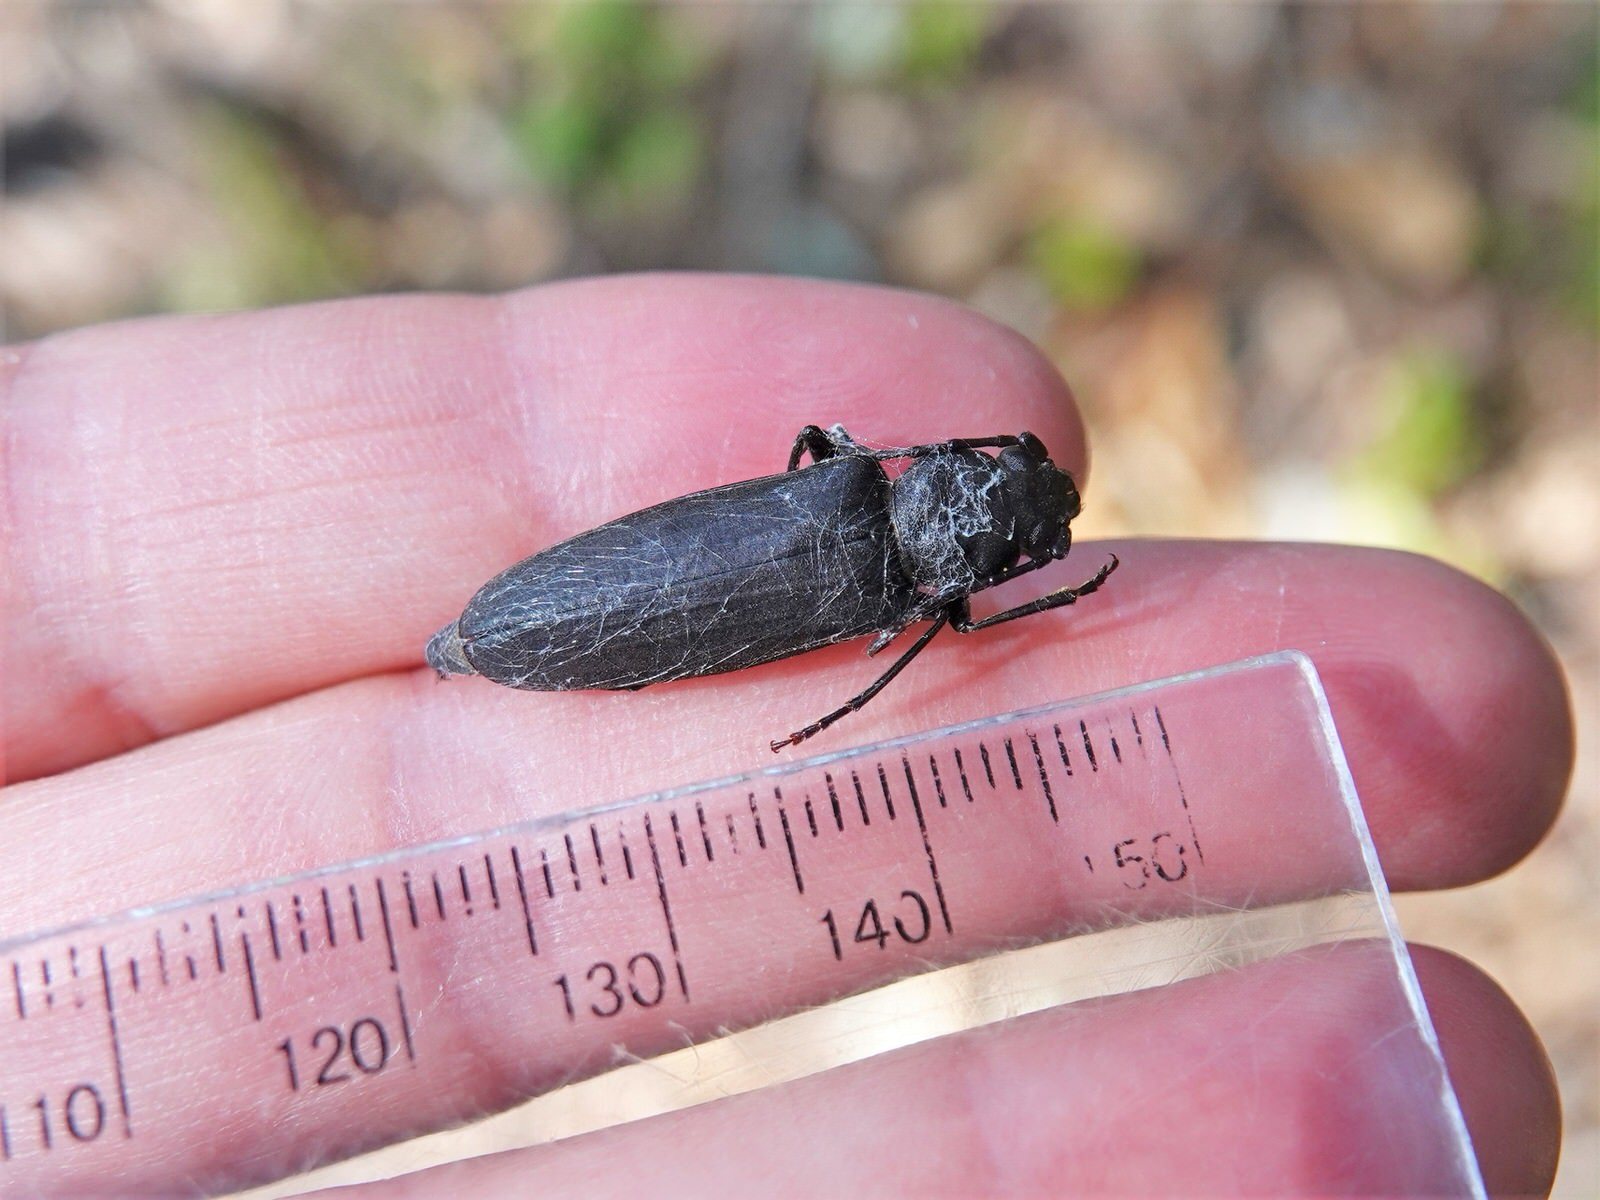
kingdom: Animalia
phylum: Arthropoda
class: Insecta
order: Coleoptera
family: Cerambycidae
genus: Arhopalus
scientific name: Arhopalus ferus
